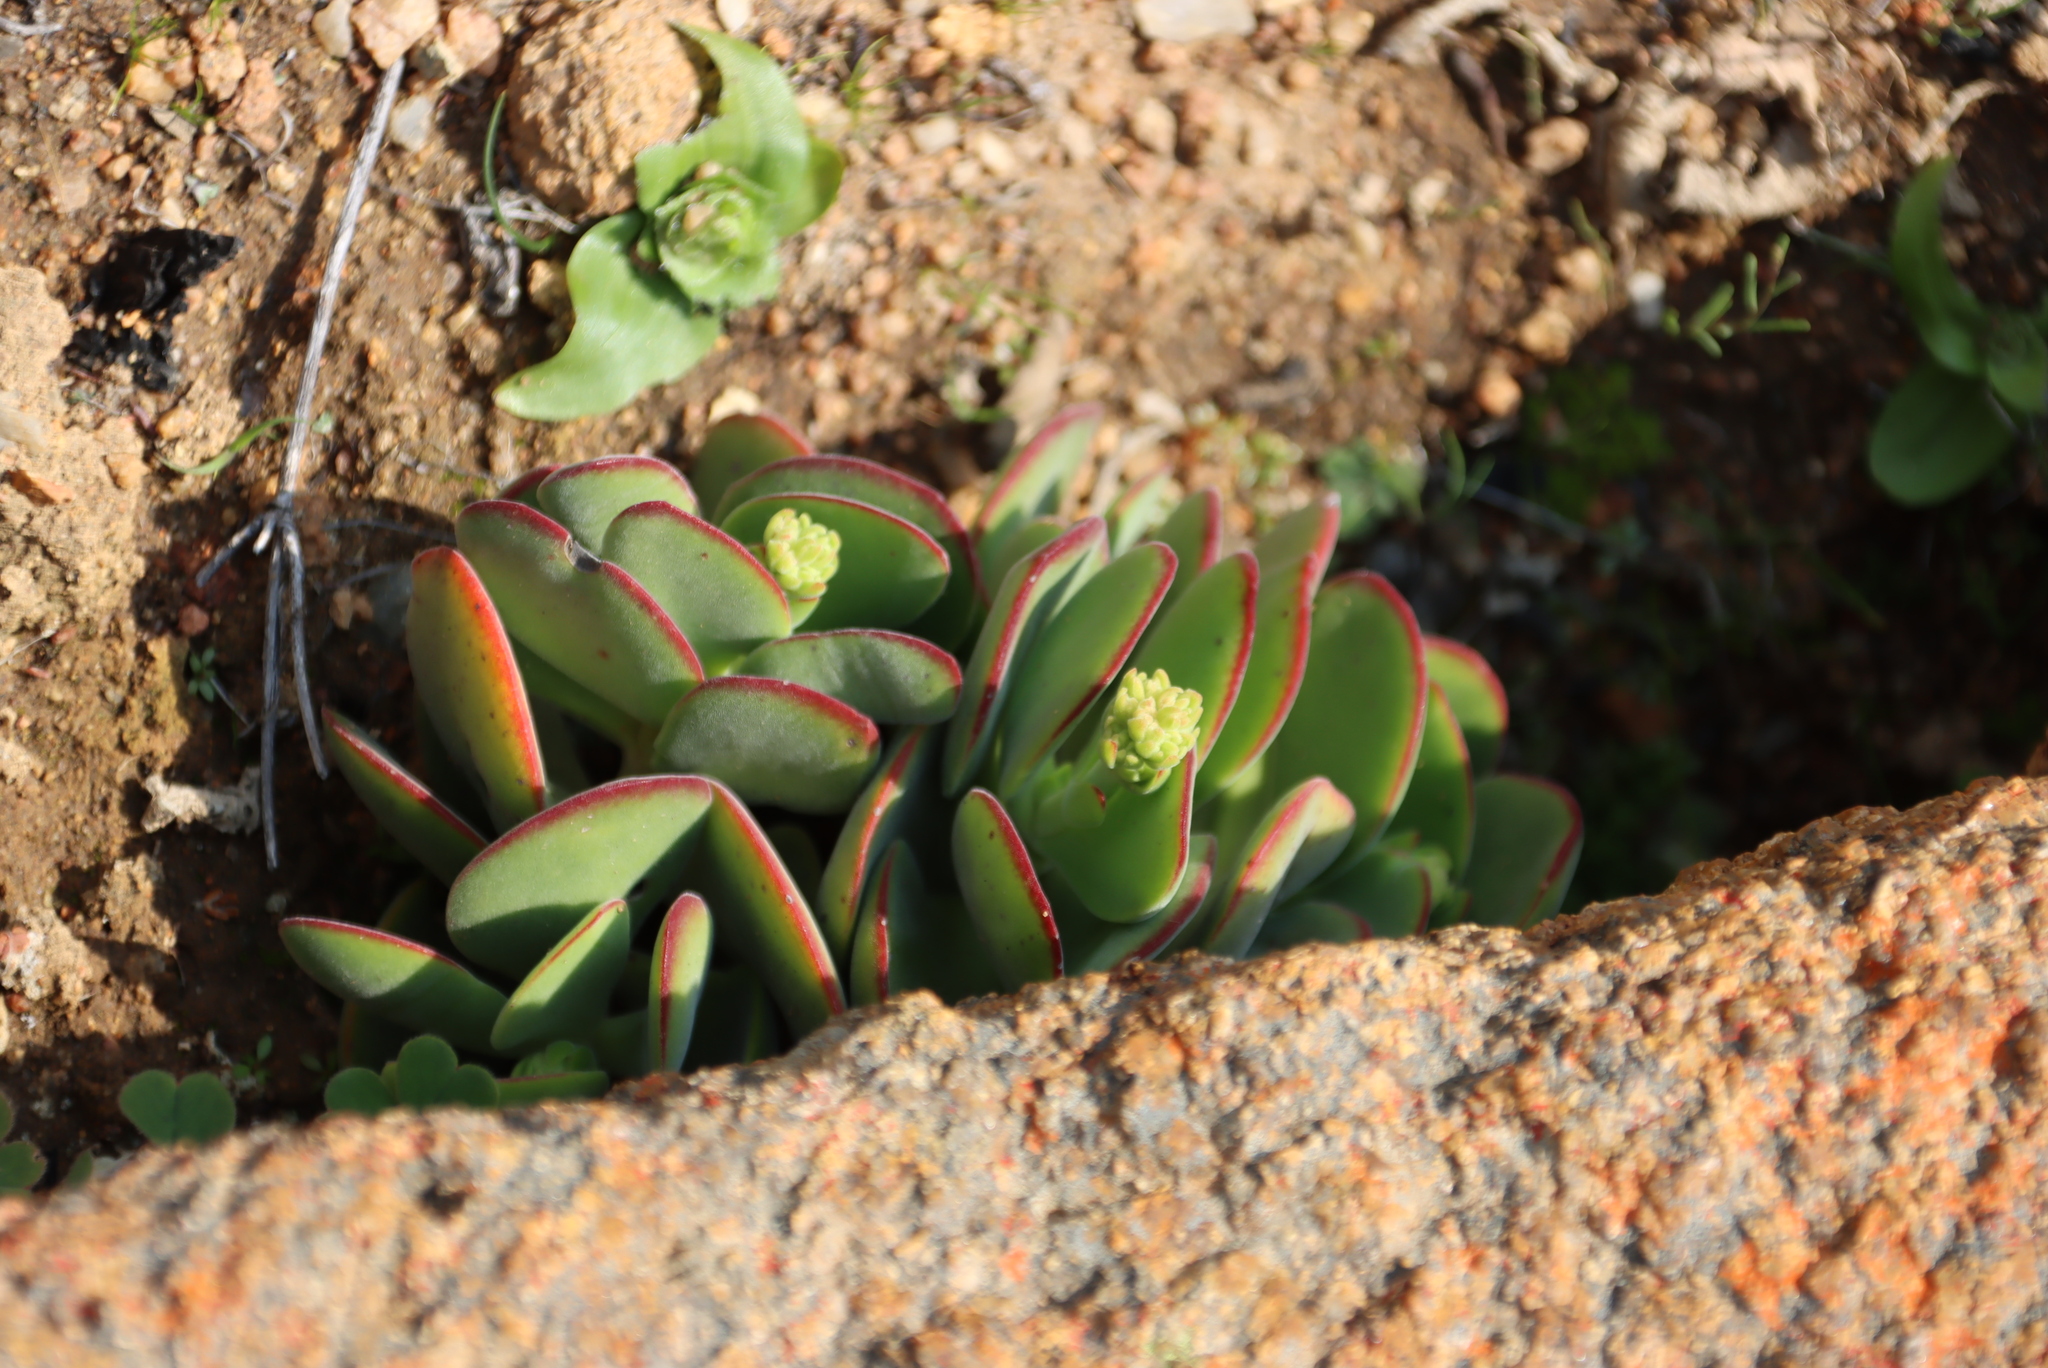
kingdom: Plantae
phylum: Tracheophyta
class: Magnoliopsida
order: Saxifragales
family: Crassulaceae
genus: Crassula
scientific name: Crassula atropurpurea
